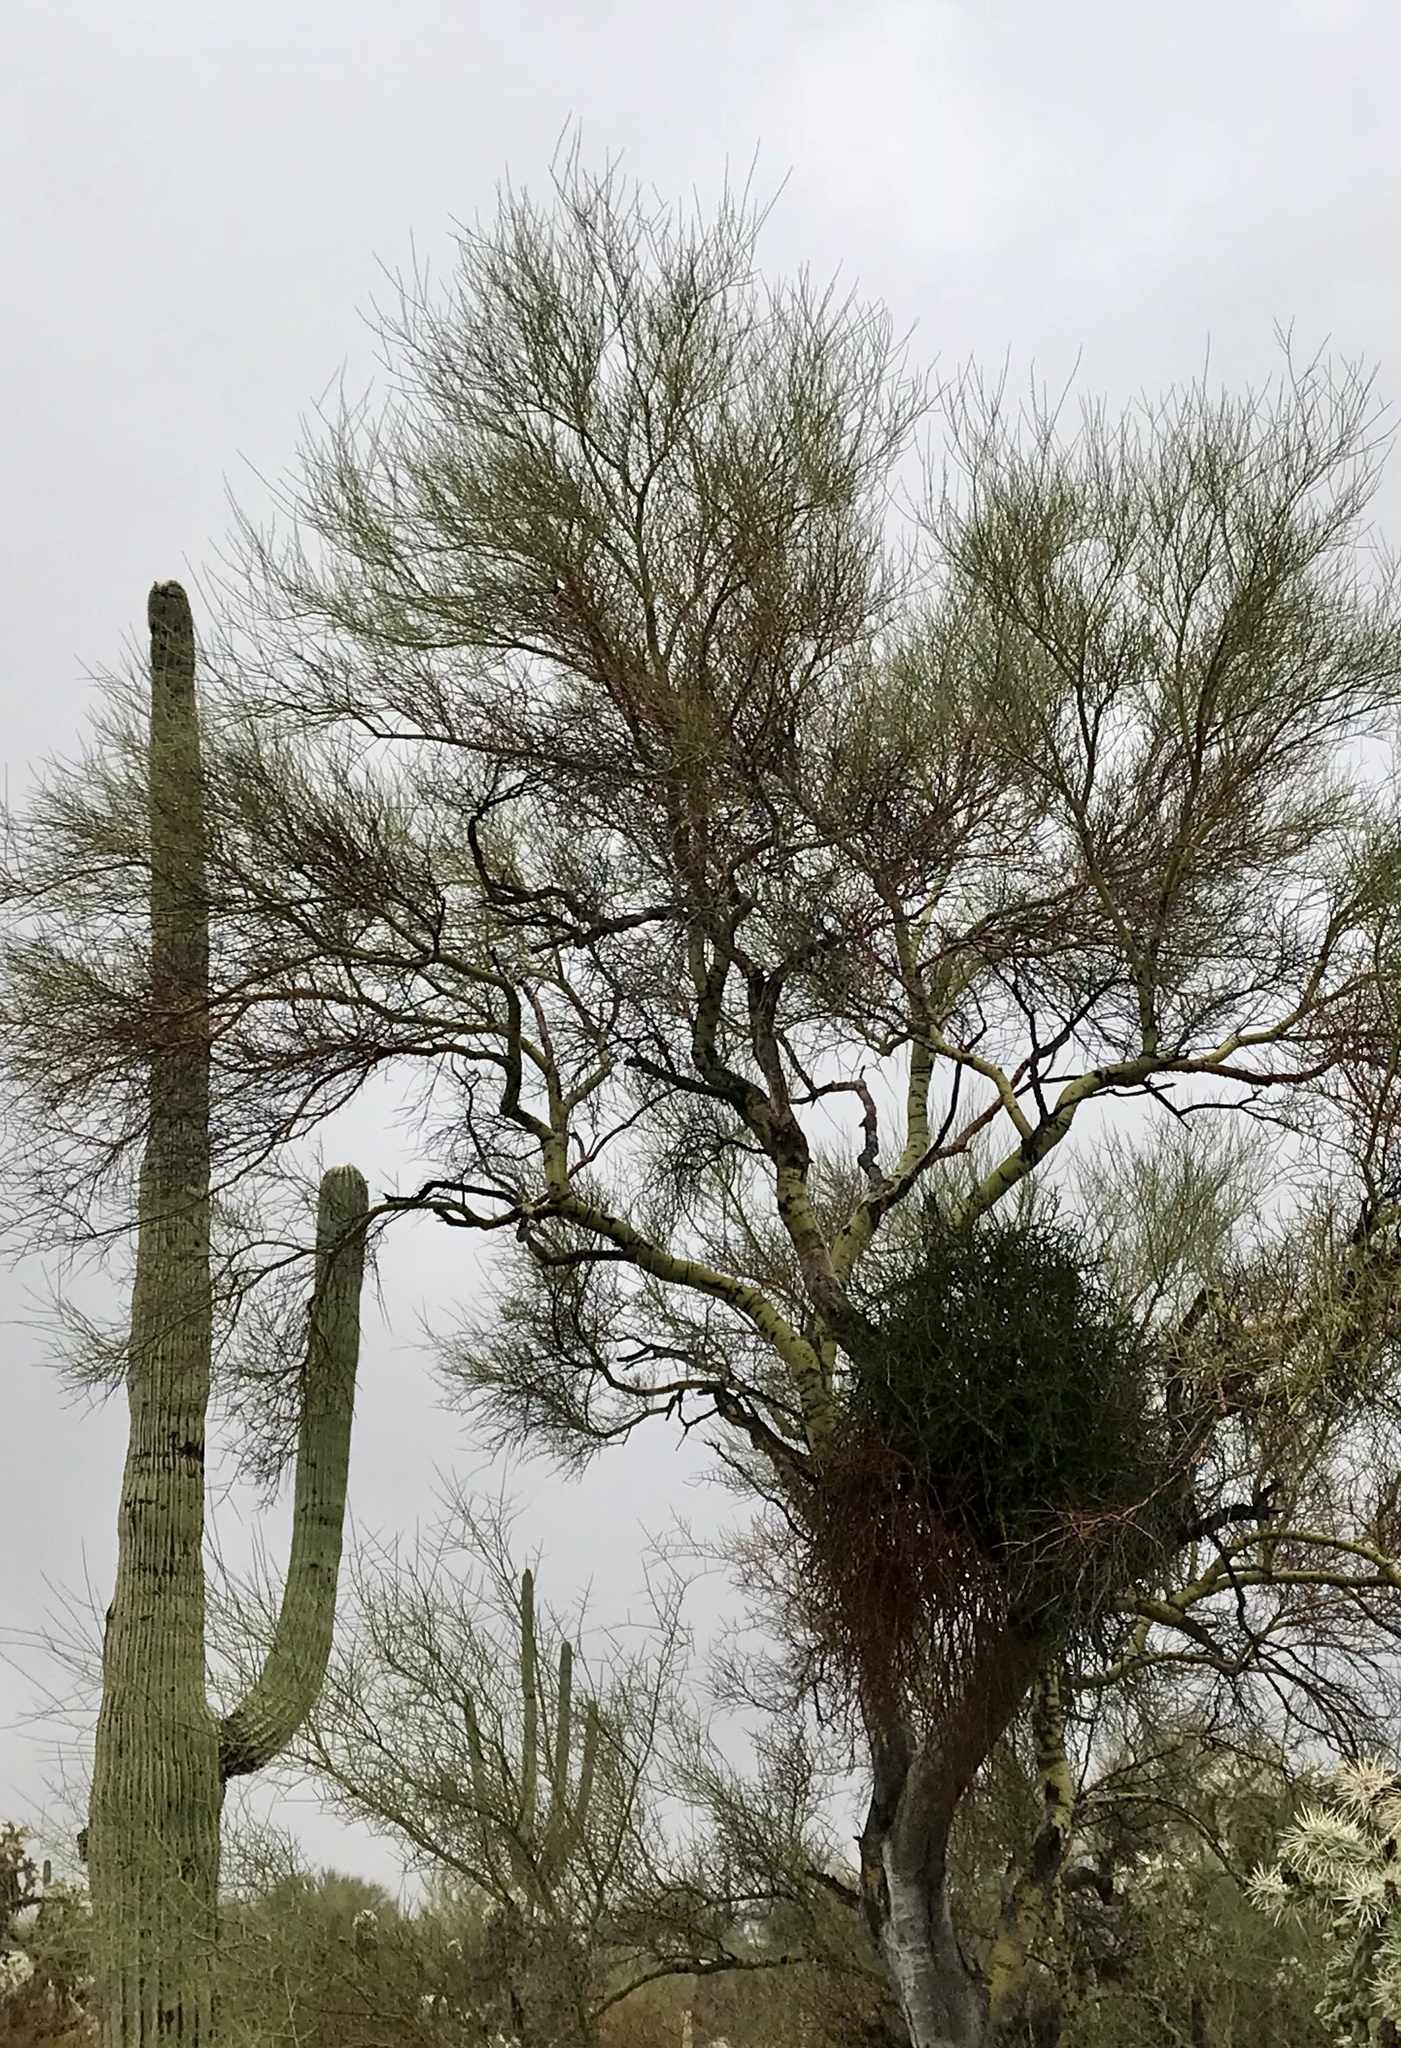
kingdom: Plantae
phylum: Tracheophyta
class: Magnoliopsida
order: Santalales
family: Viscaceae
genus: Phoradendron
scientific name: Phoradendron californicum
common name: Acacia mistletoe
